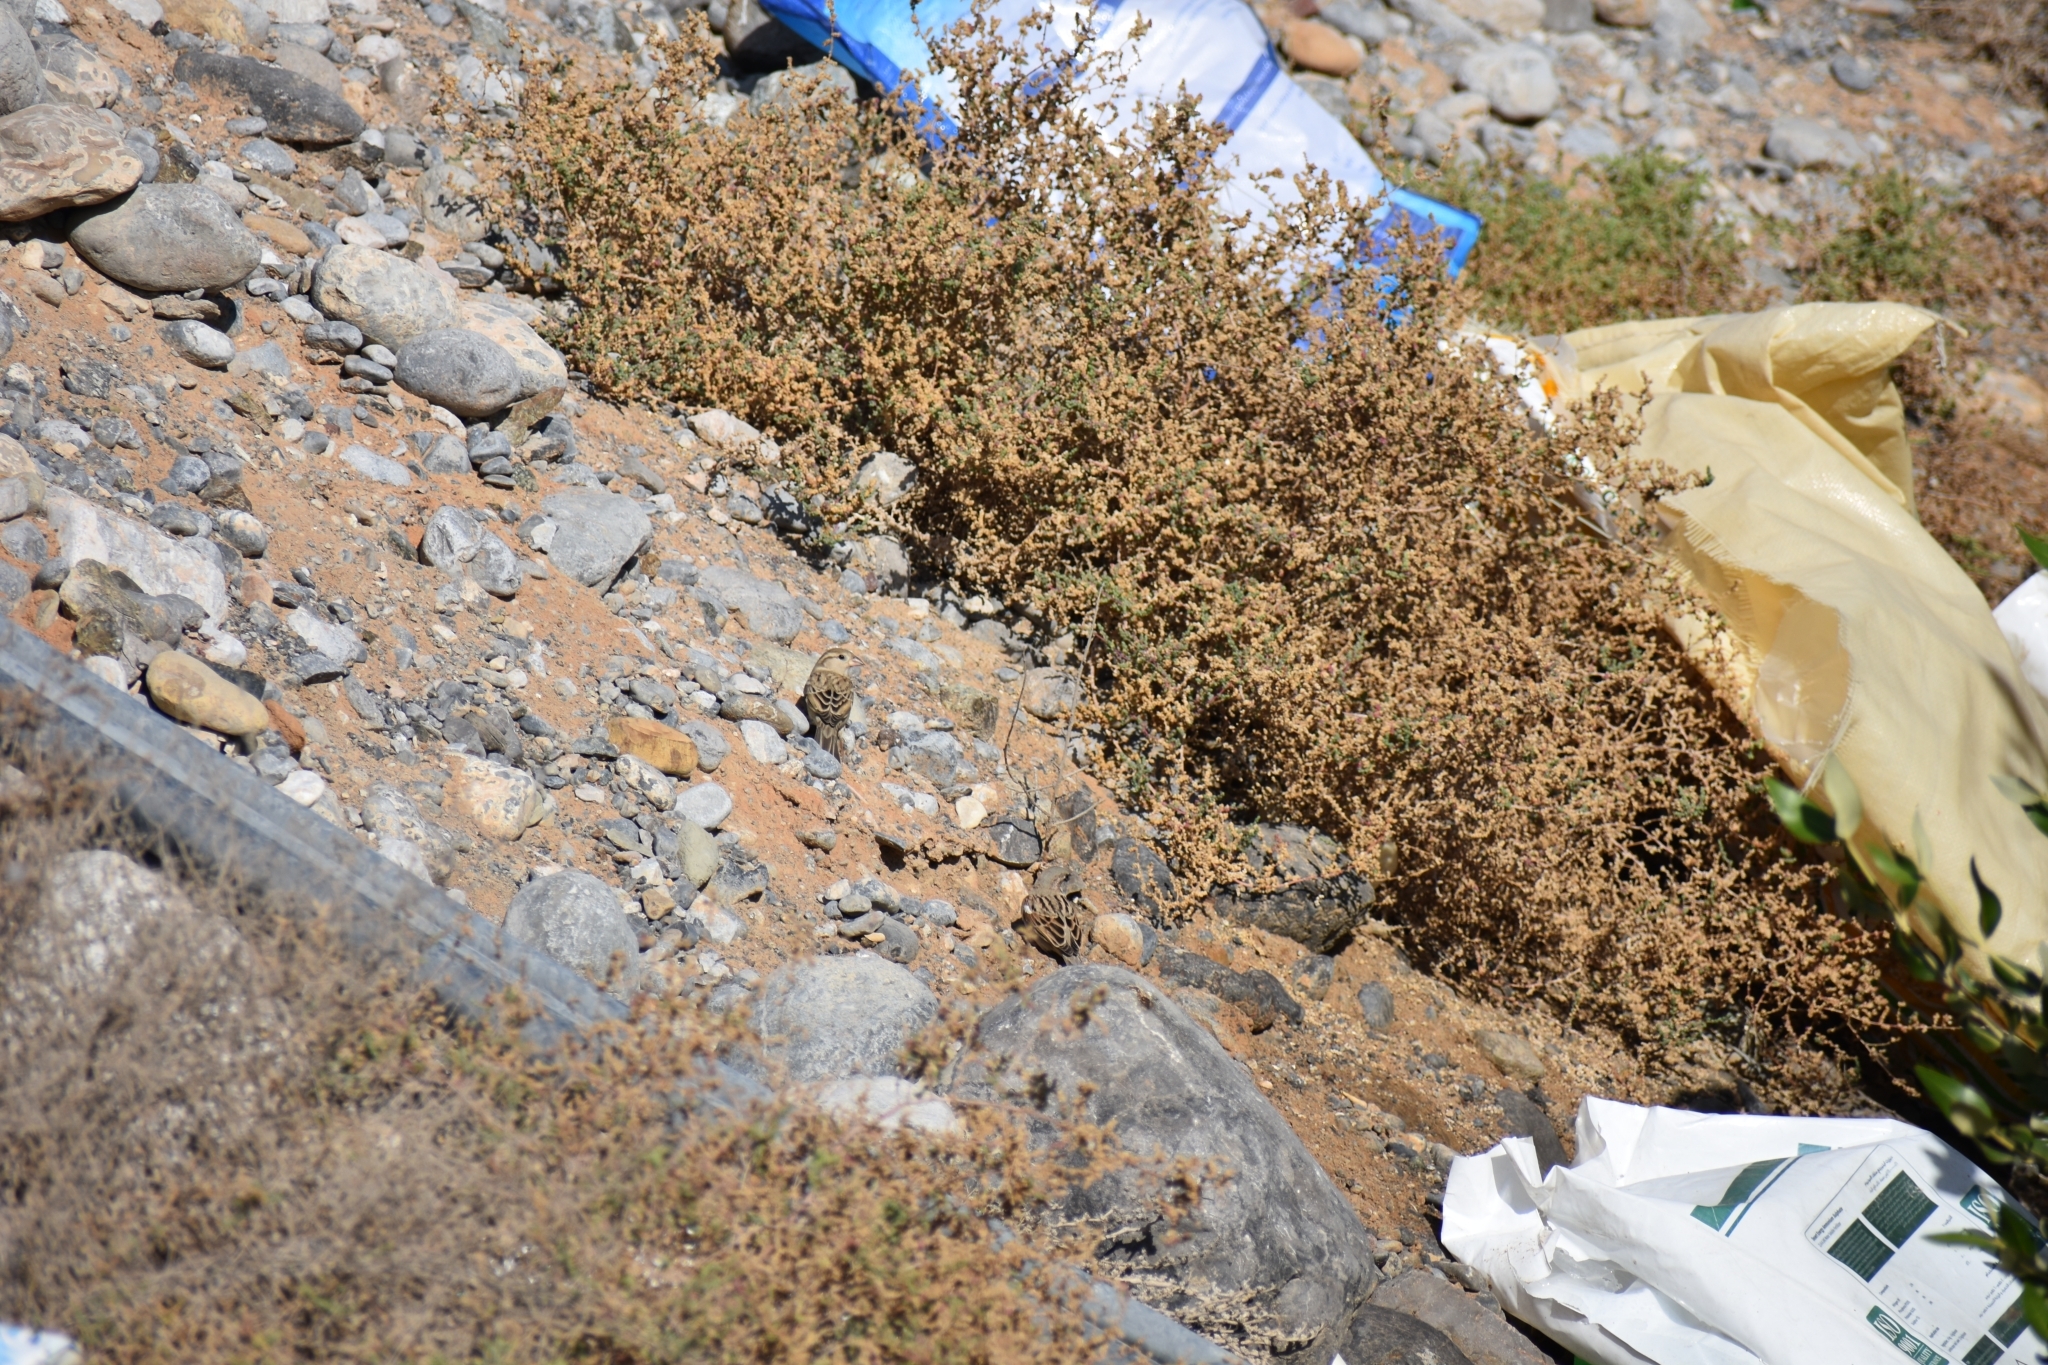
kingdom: Animalia
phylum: Chordata
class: Aves
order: Passeriformes
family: Passeridae
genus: Passer
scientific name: Passer domesticus
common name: House sparrow
